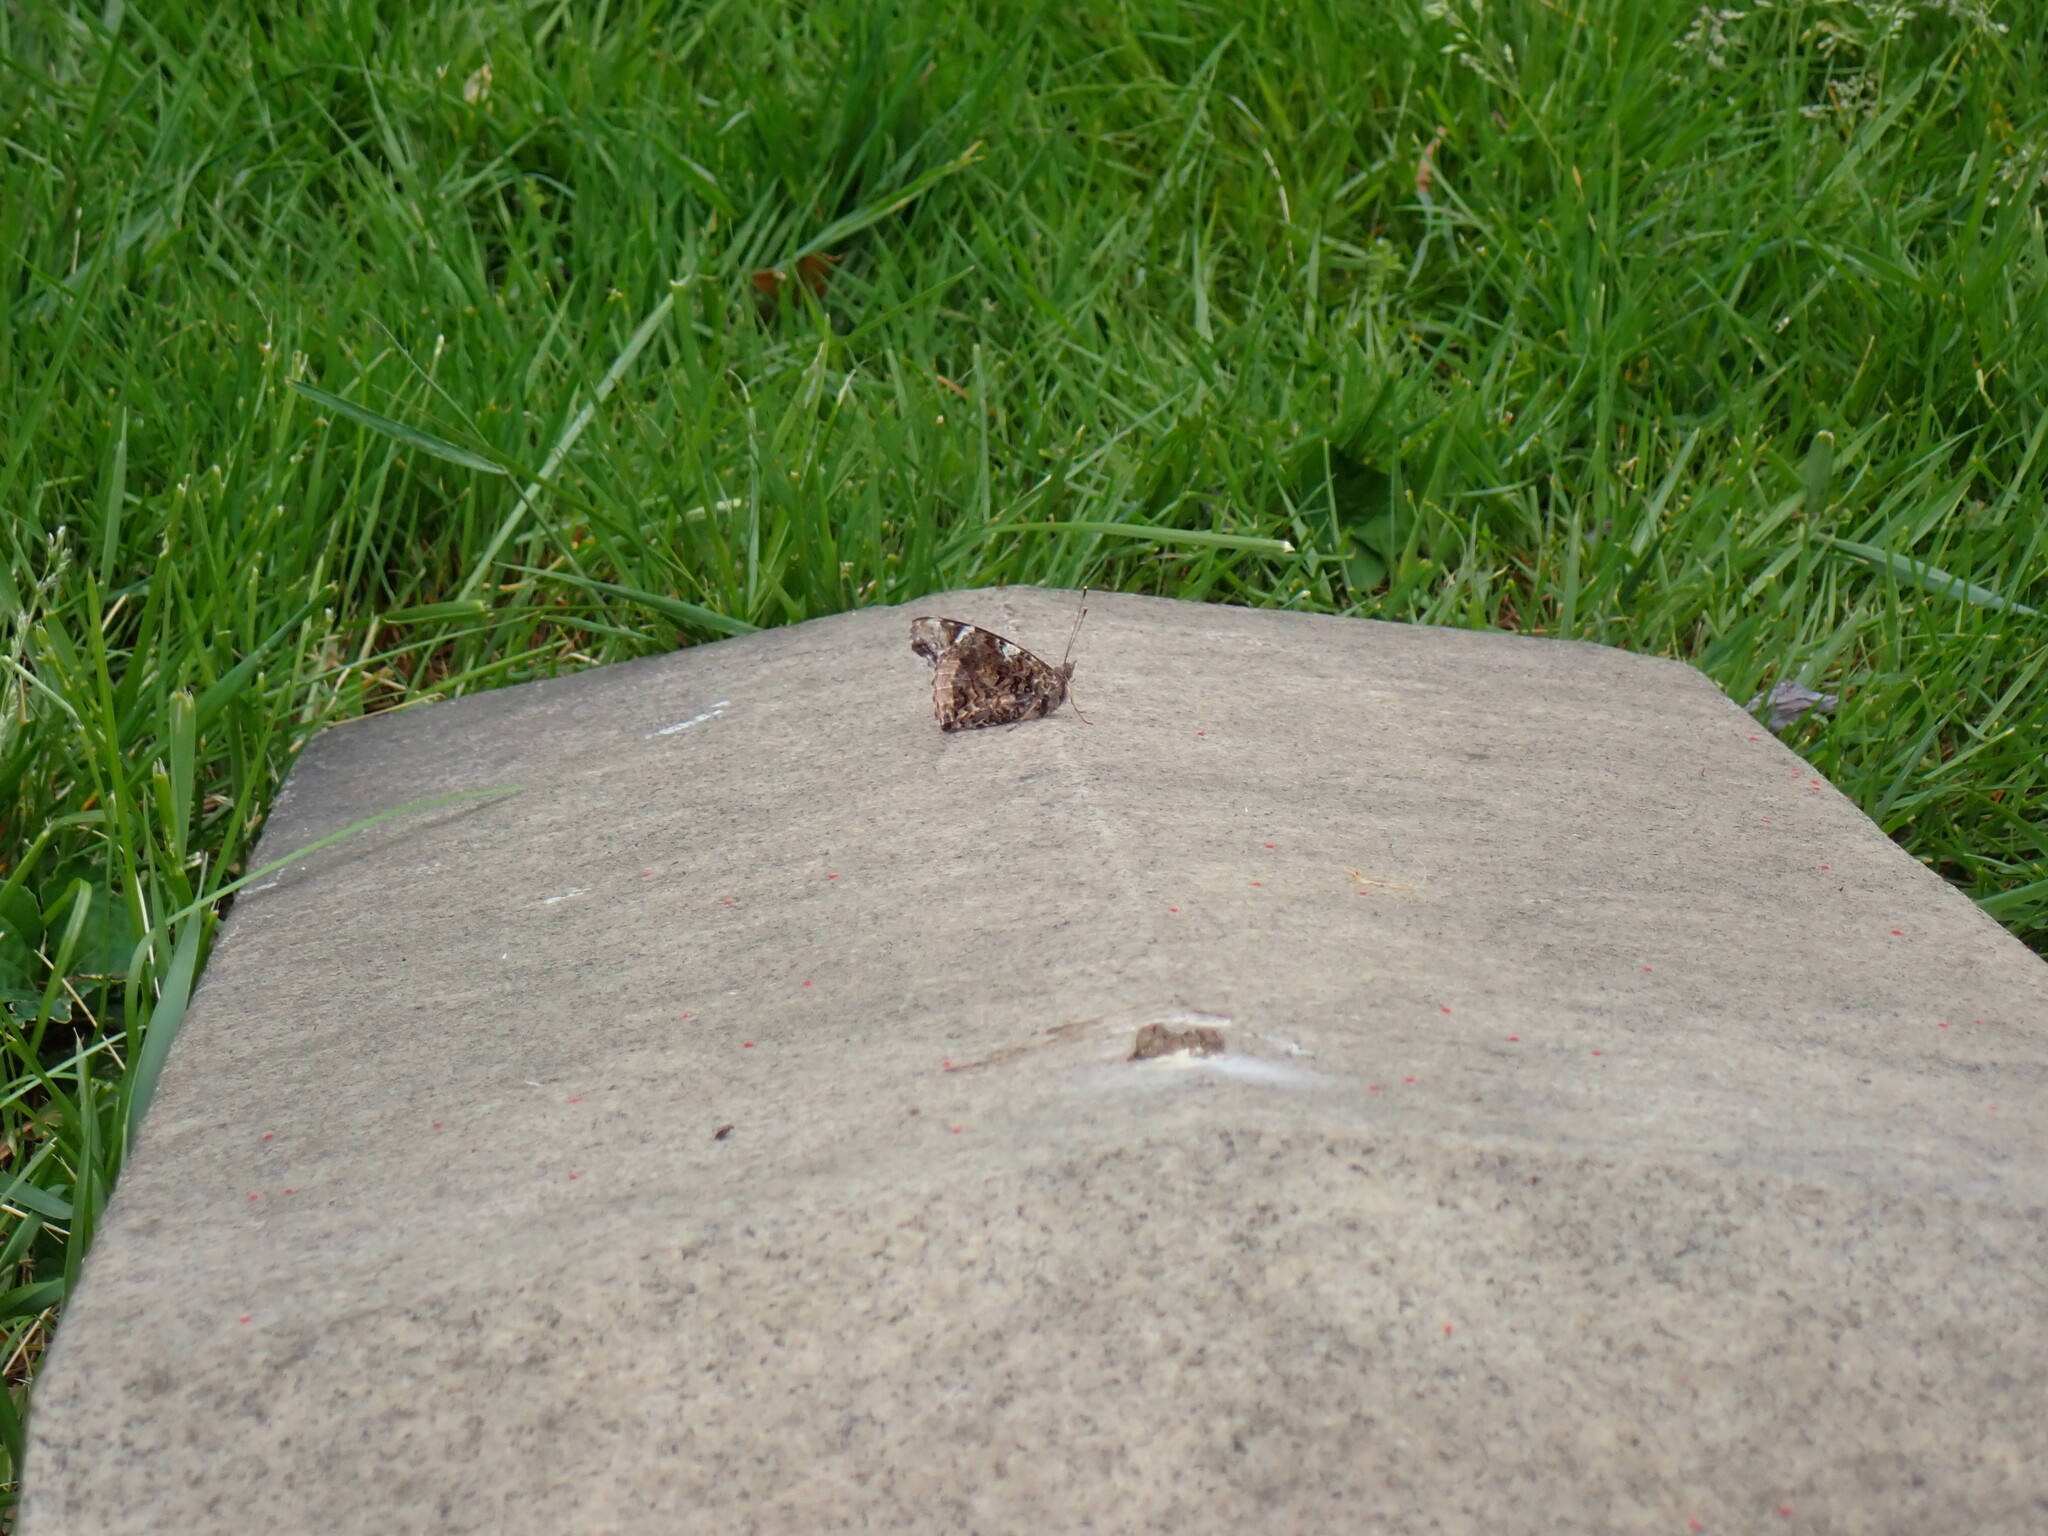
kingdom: Animalia
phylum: Arthropoda
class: Insecta
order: Lepidoptera
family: Nymphalidae
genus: Vanessa
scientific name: Vanessa atalanta
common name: Red admiral
